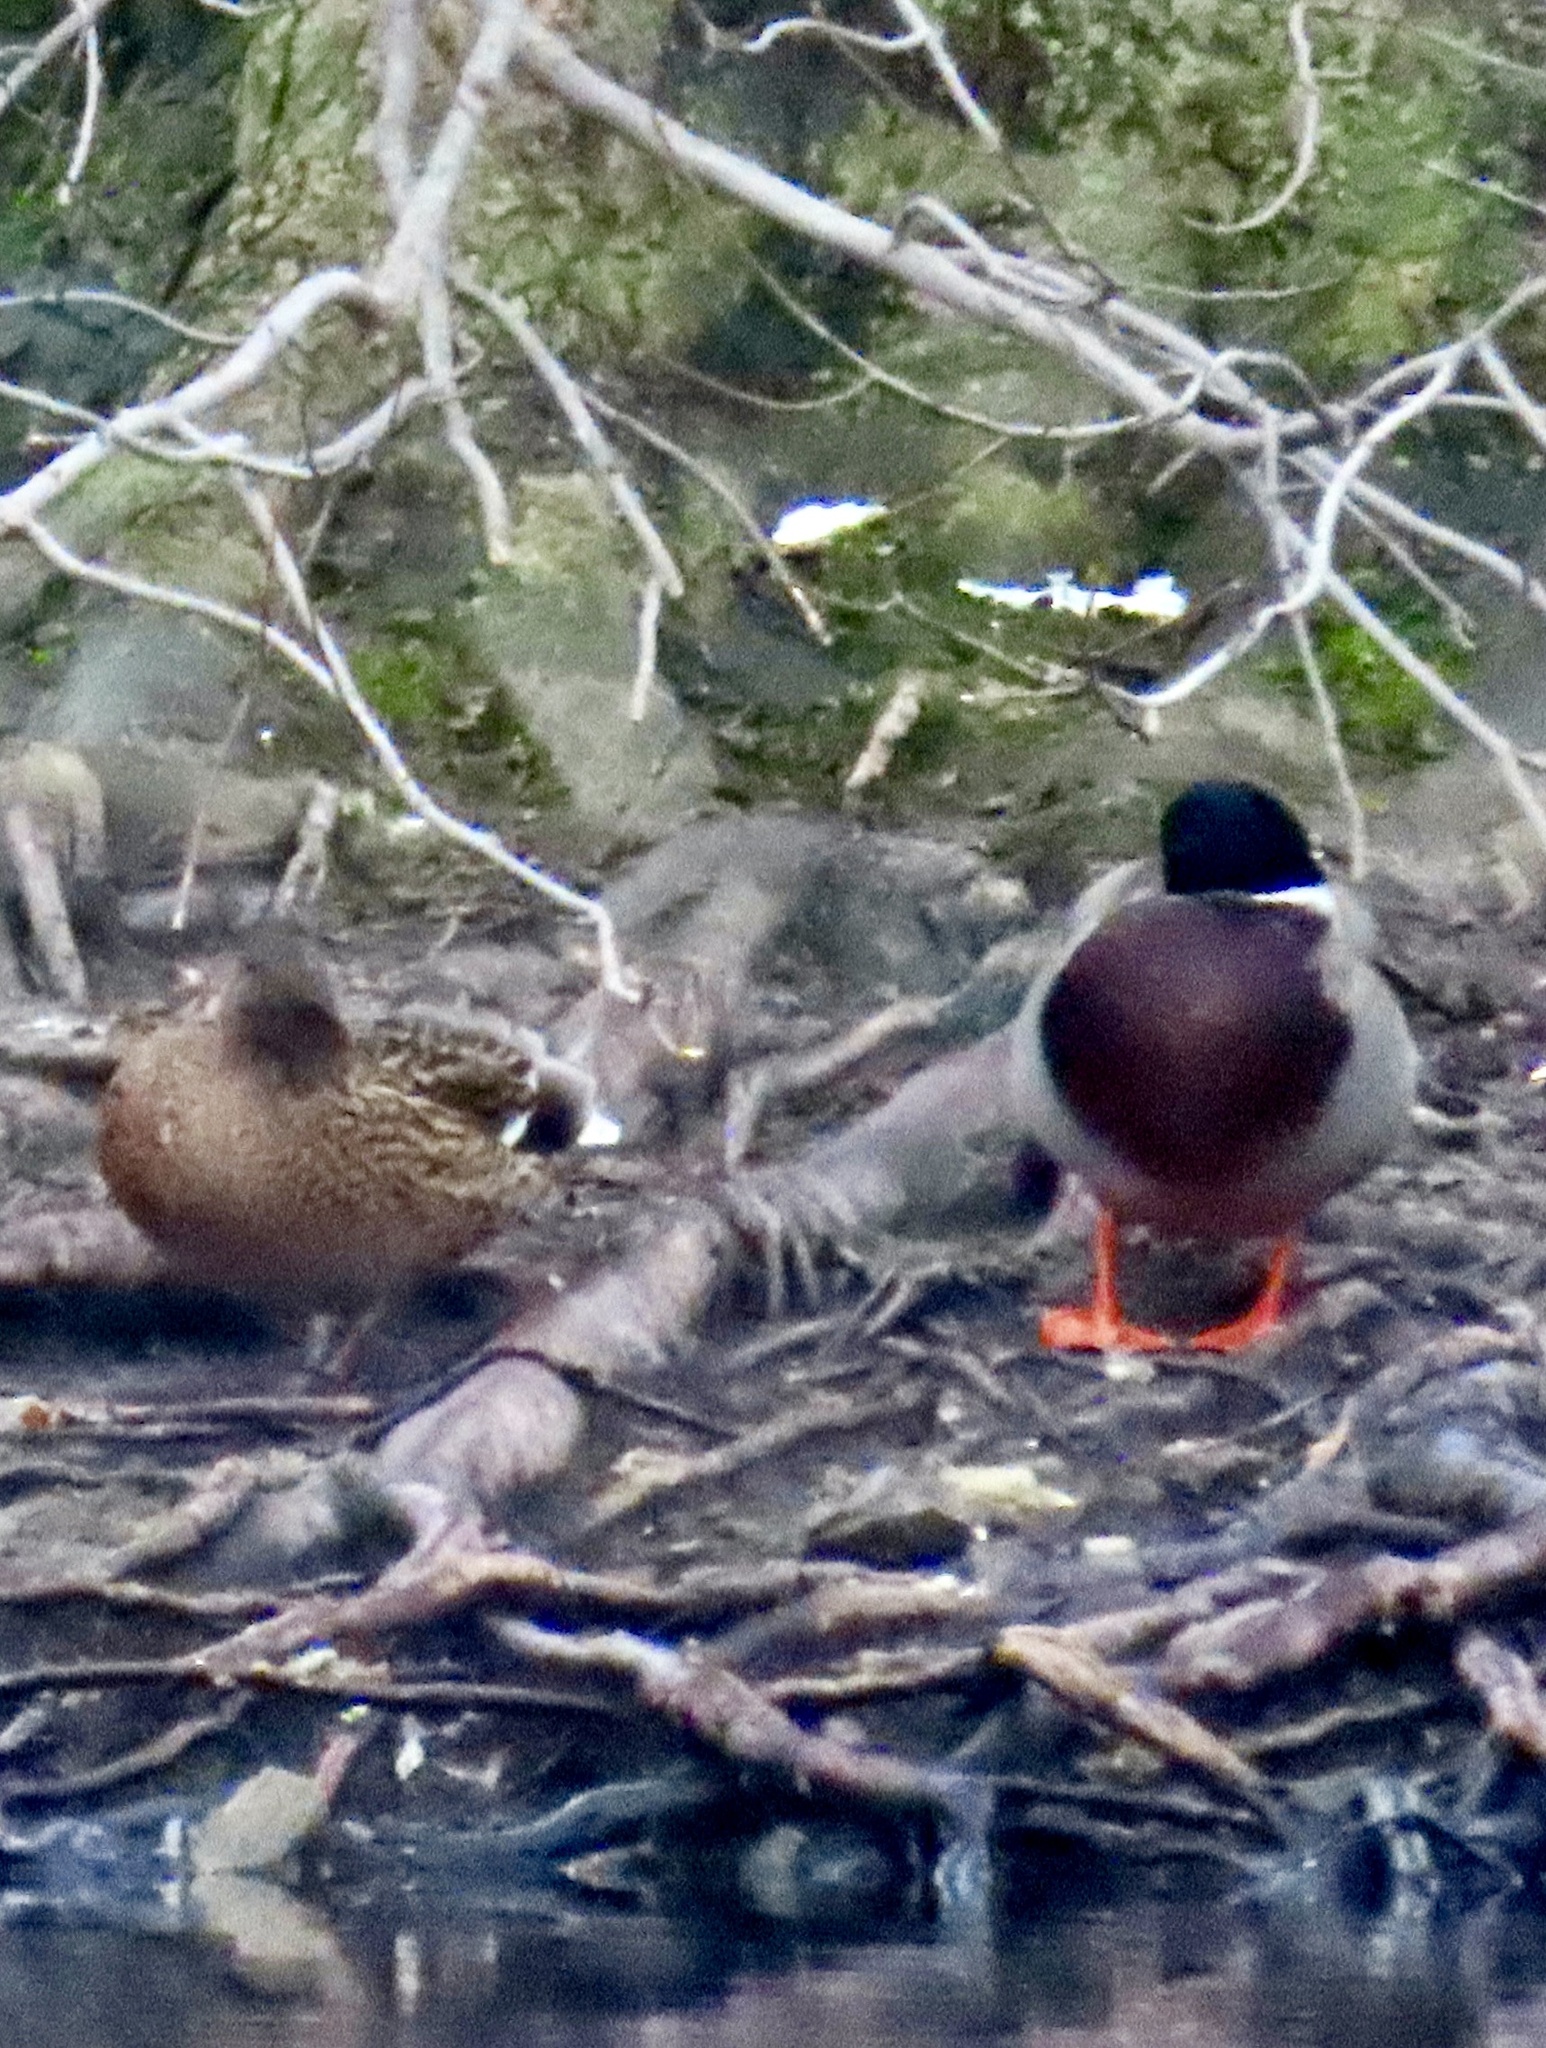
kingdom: Animalia
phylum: Chordata
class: Aves
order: Anseriformes
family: Anatidae
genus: Anas
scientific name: Anas platyrhynchos
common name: Mallard
